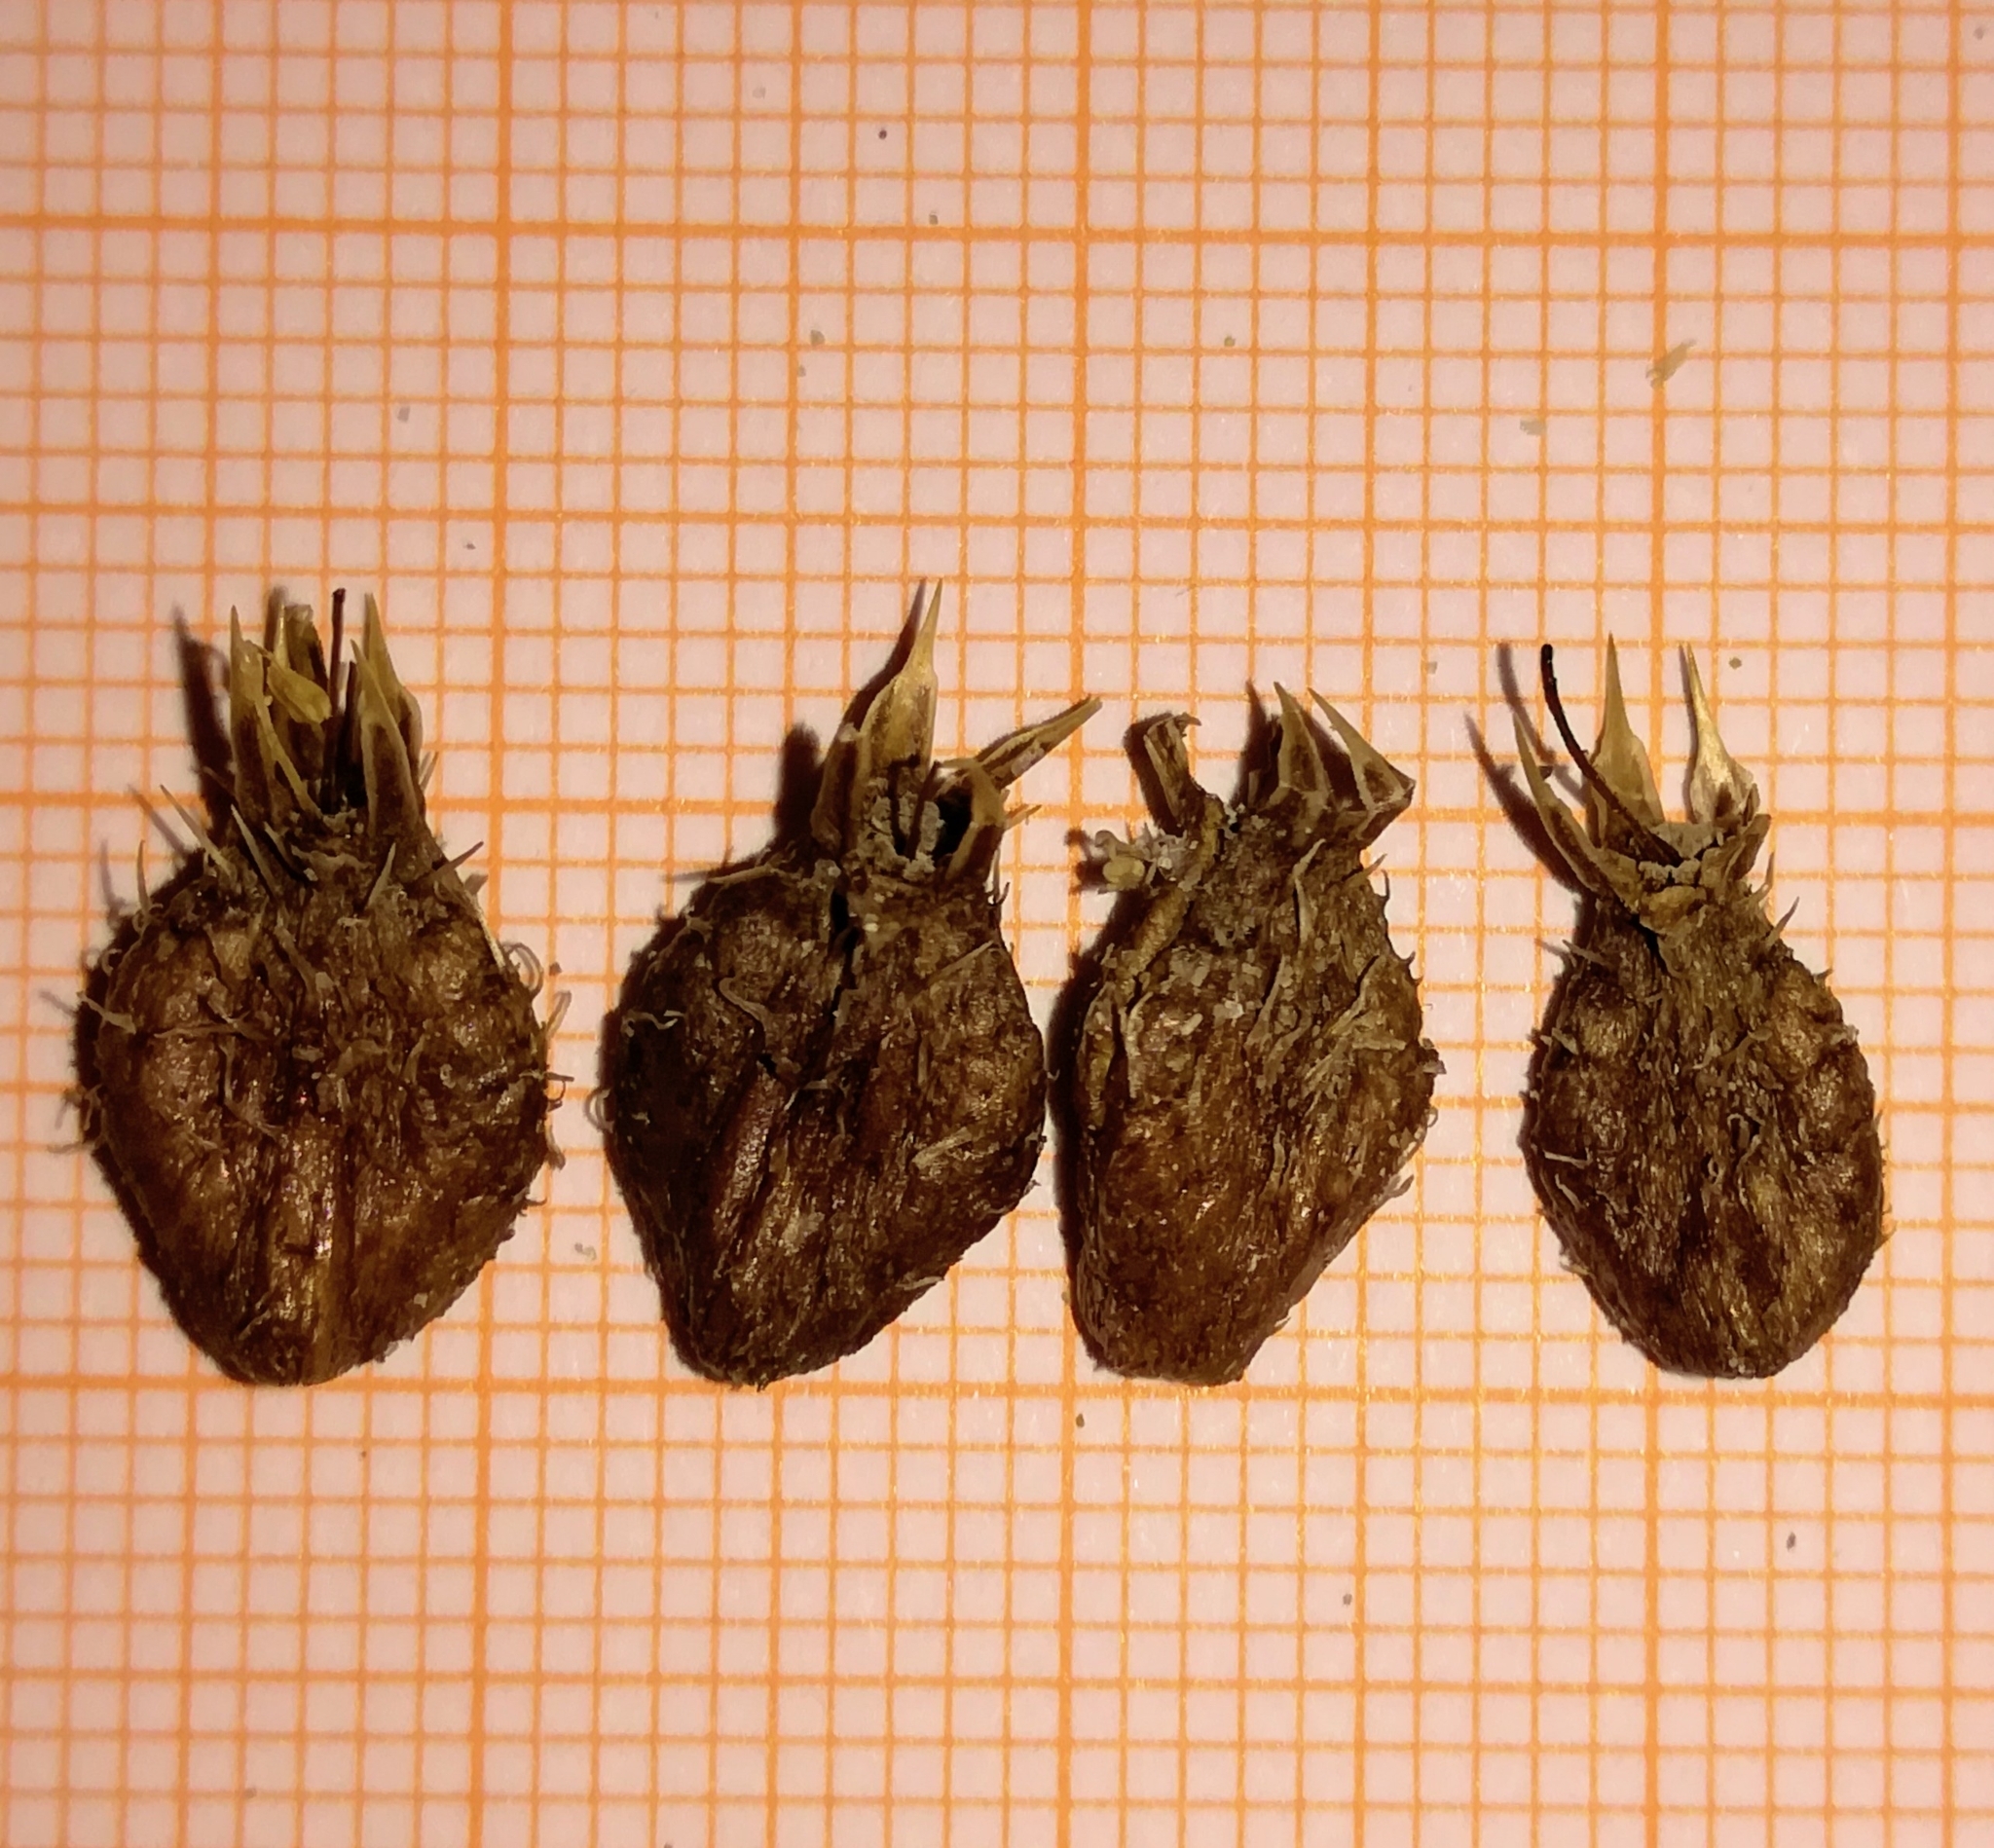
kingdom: Plantae
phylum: Tracheophyta
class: Magnoliopsida
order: Apiales
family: Apiaceae
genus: Eryngium
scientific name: Eryngium maritimum
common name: Sea-holly
